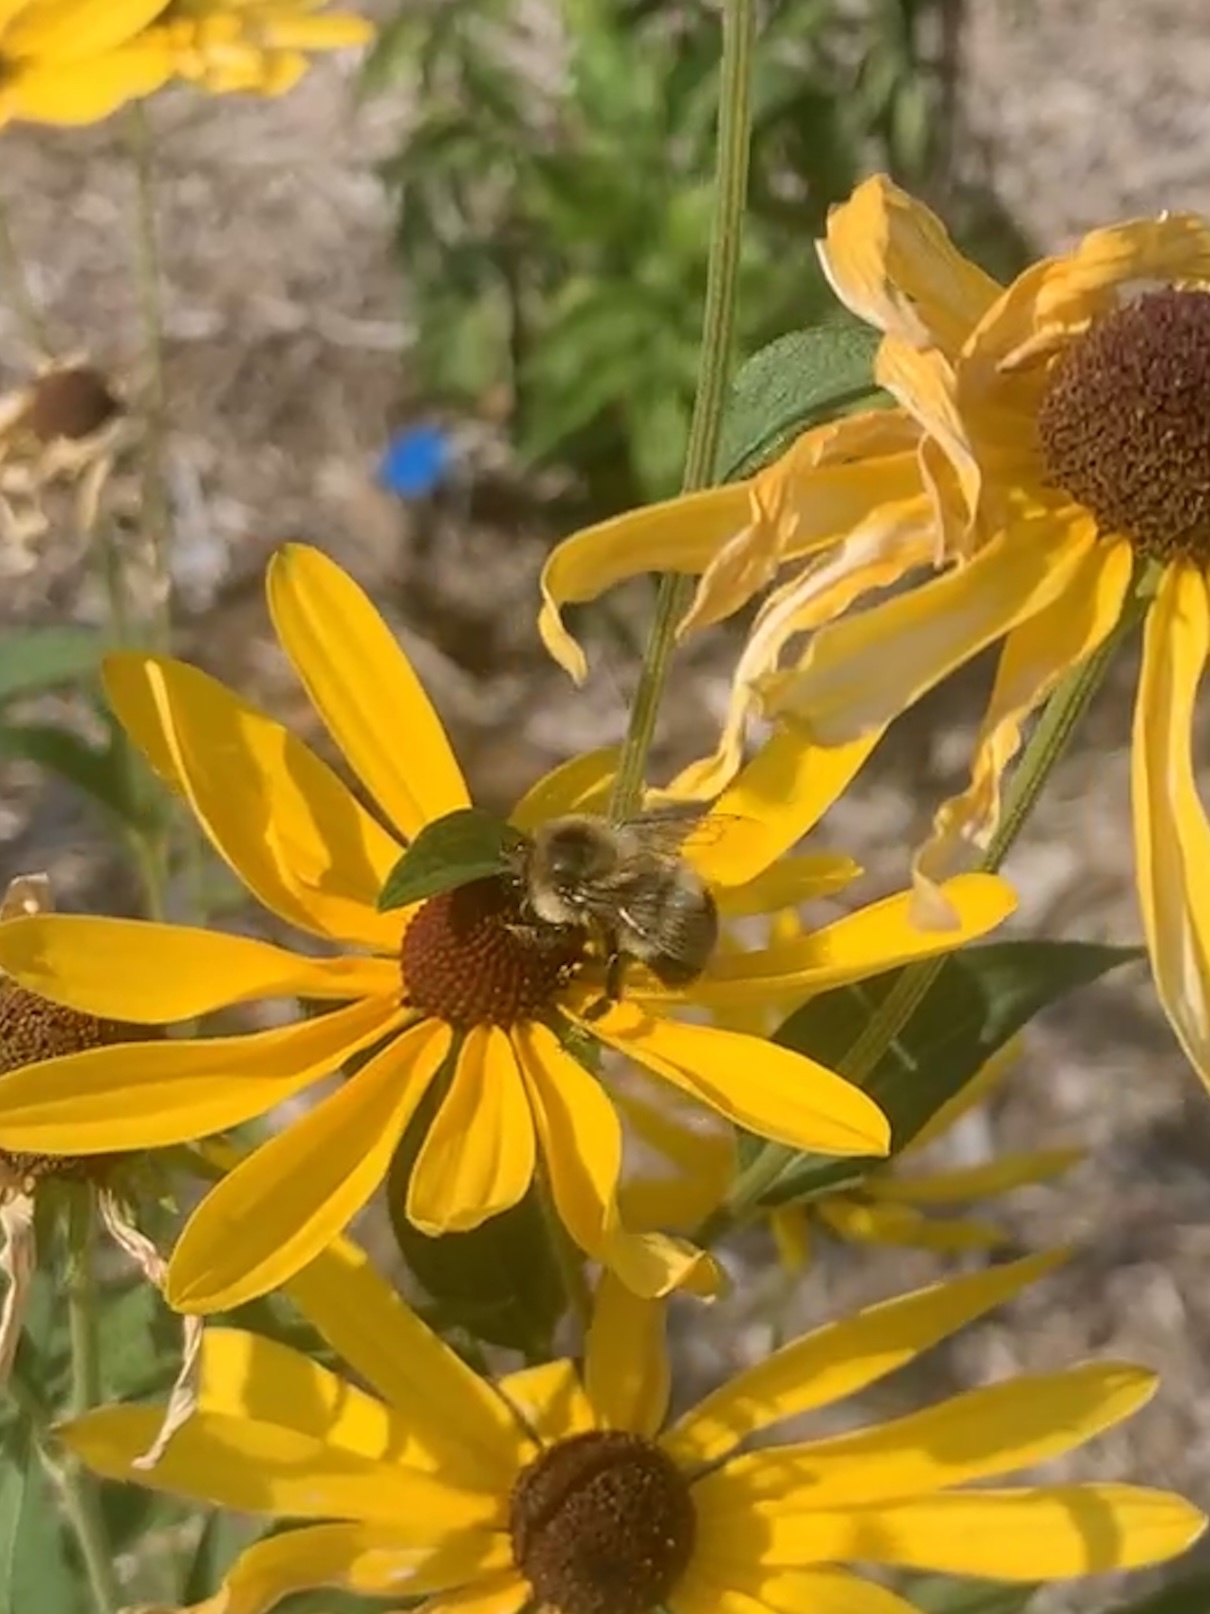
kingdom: Animalia
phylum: Arthropoda
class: Insecta
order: Hymenoptera
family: Apidae
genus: Bombus
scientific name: Bombus griseocollis
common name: Brown-belted bumble bee
